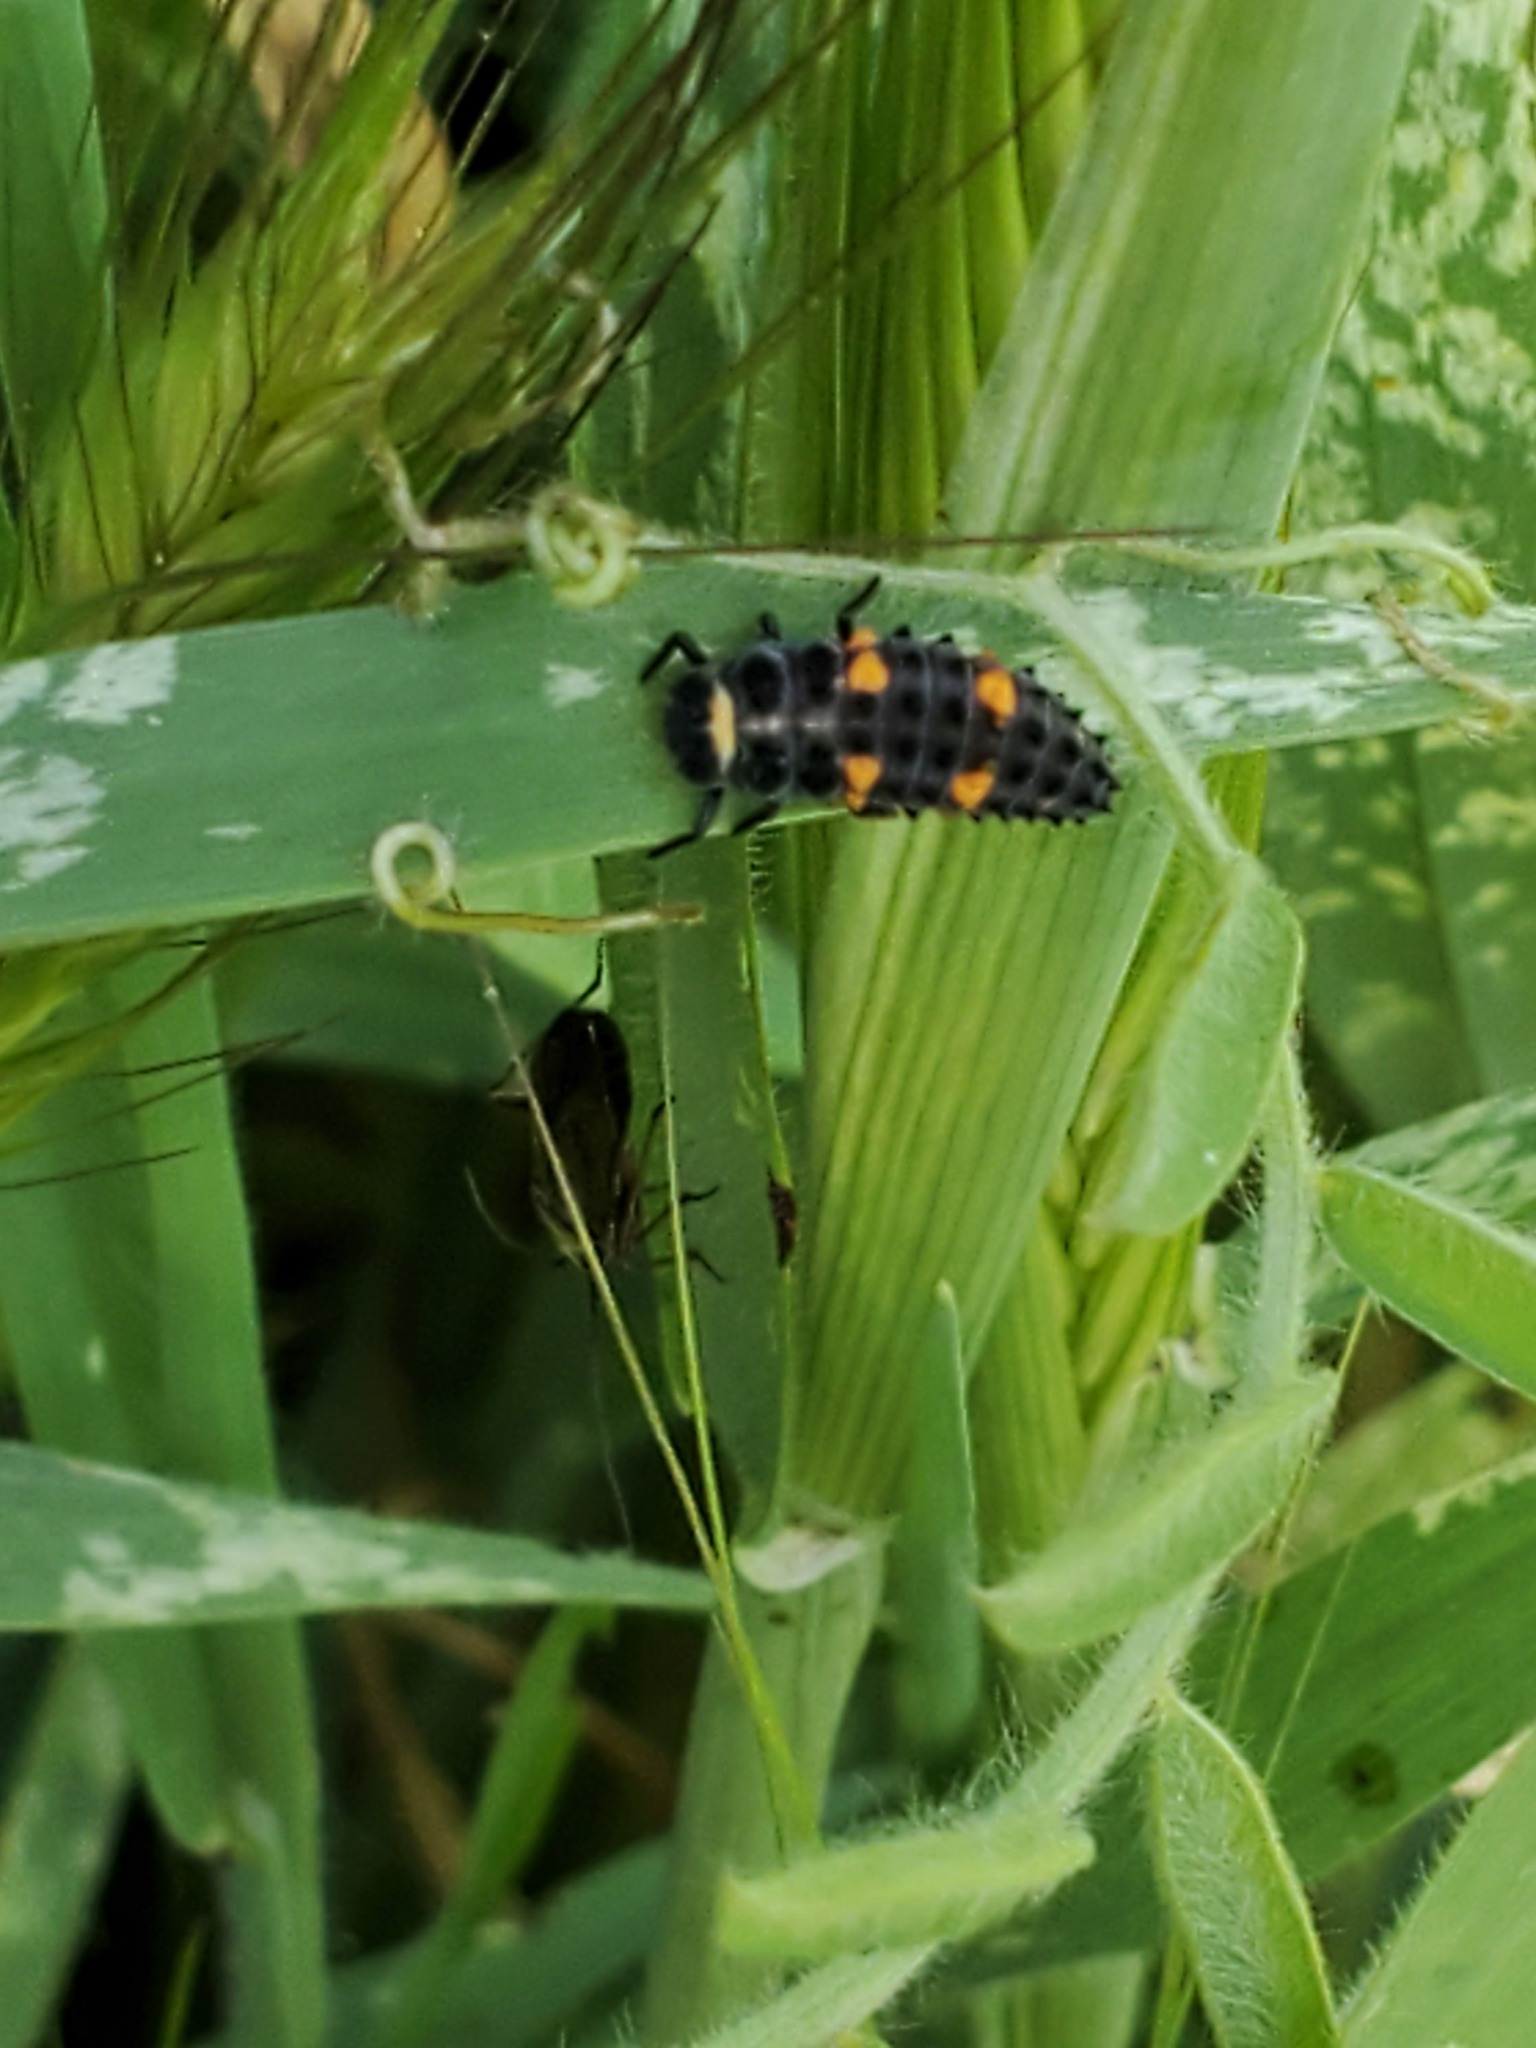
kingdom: Animalia
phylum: Arthropoda
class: Insecta
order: Coleoptera
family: Coccinellidae
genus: Coccinella
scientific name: Coccinella septempunctata
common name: Sevenspotted lady beetle
